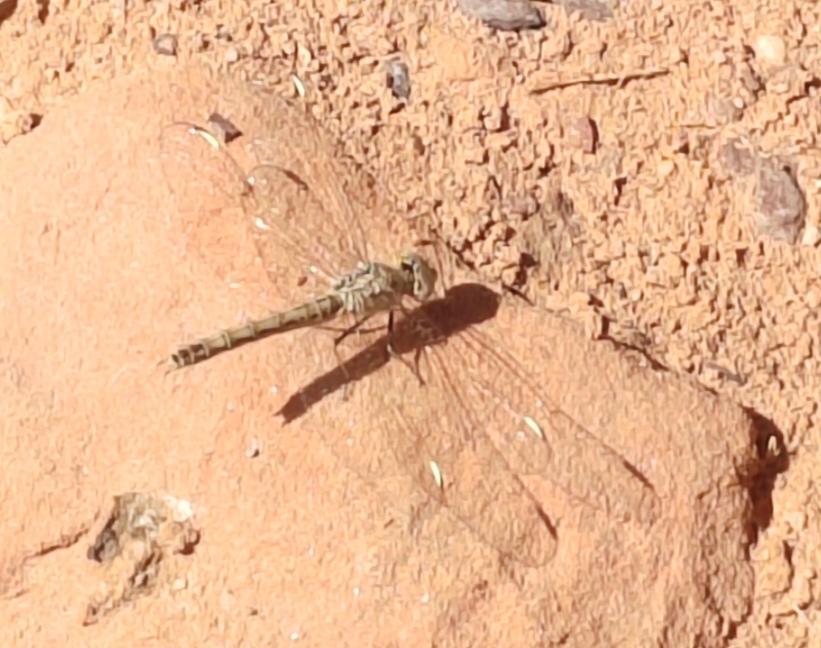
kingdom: Animalia
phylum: Arthropoda
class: Insecta
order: Odonata
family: Libellulidae
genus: Brachythemis
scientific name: Brachythemis impartita
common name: Banded groundling
